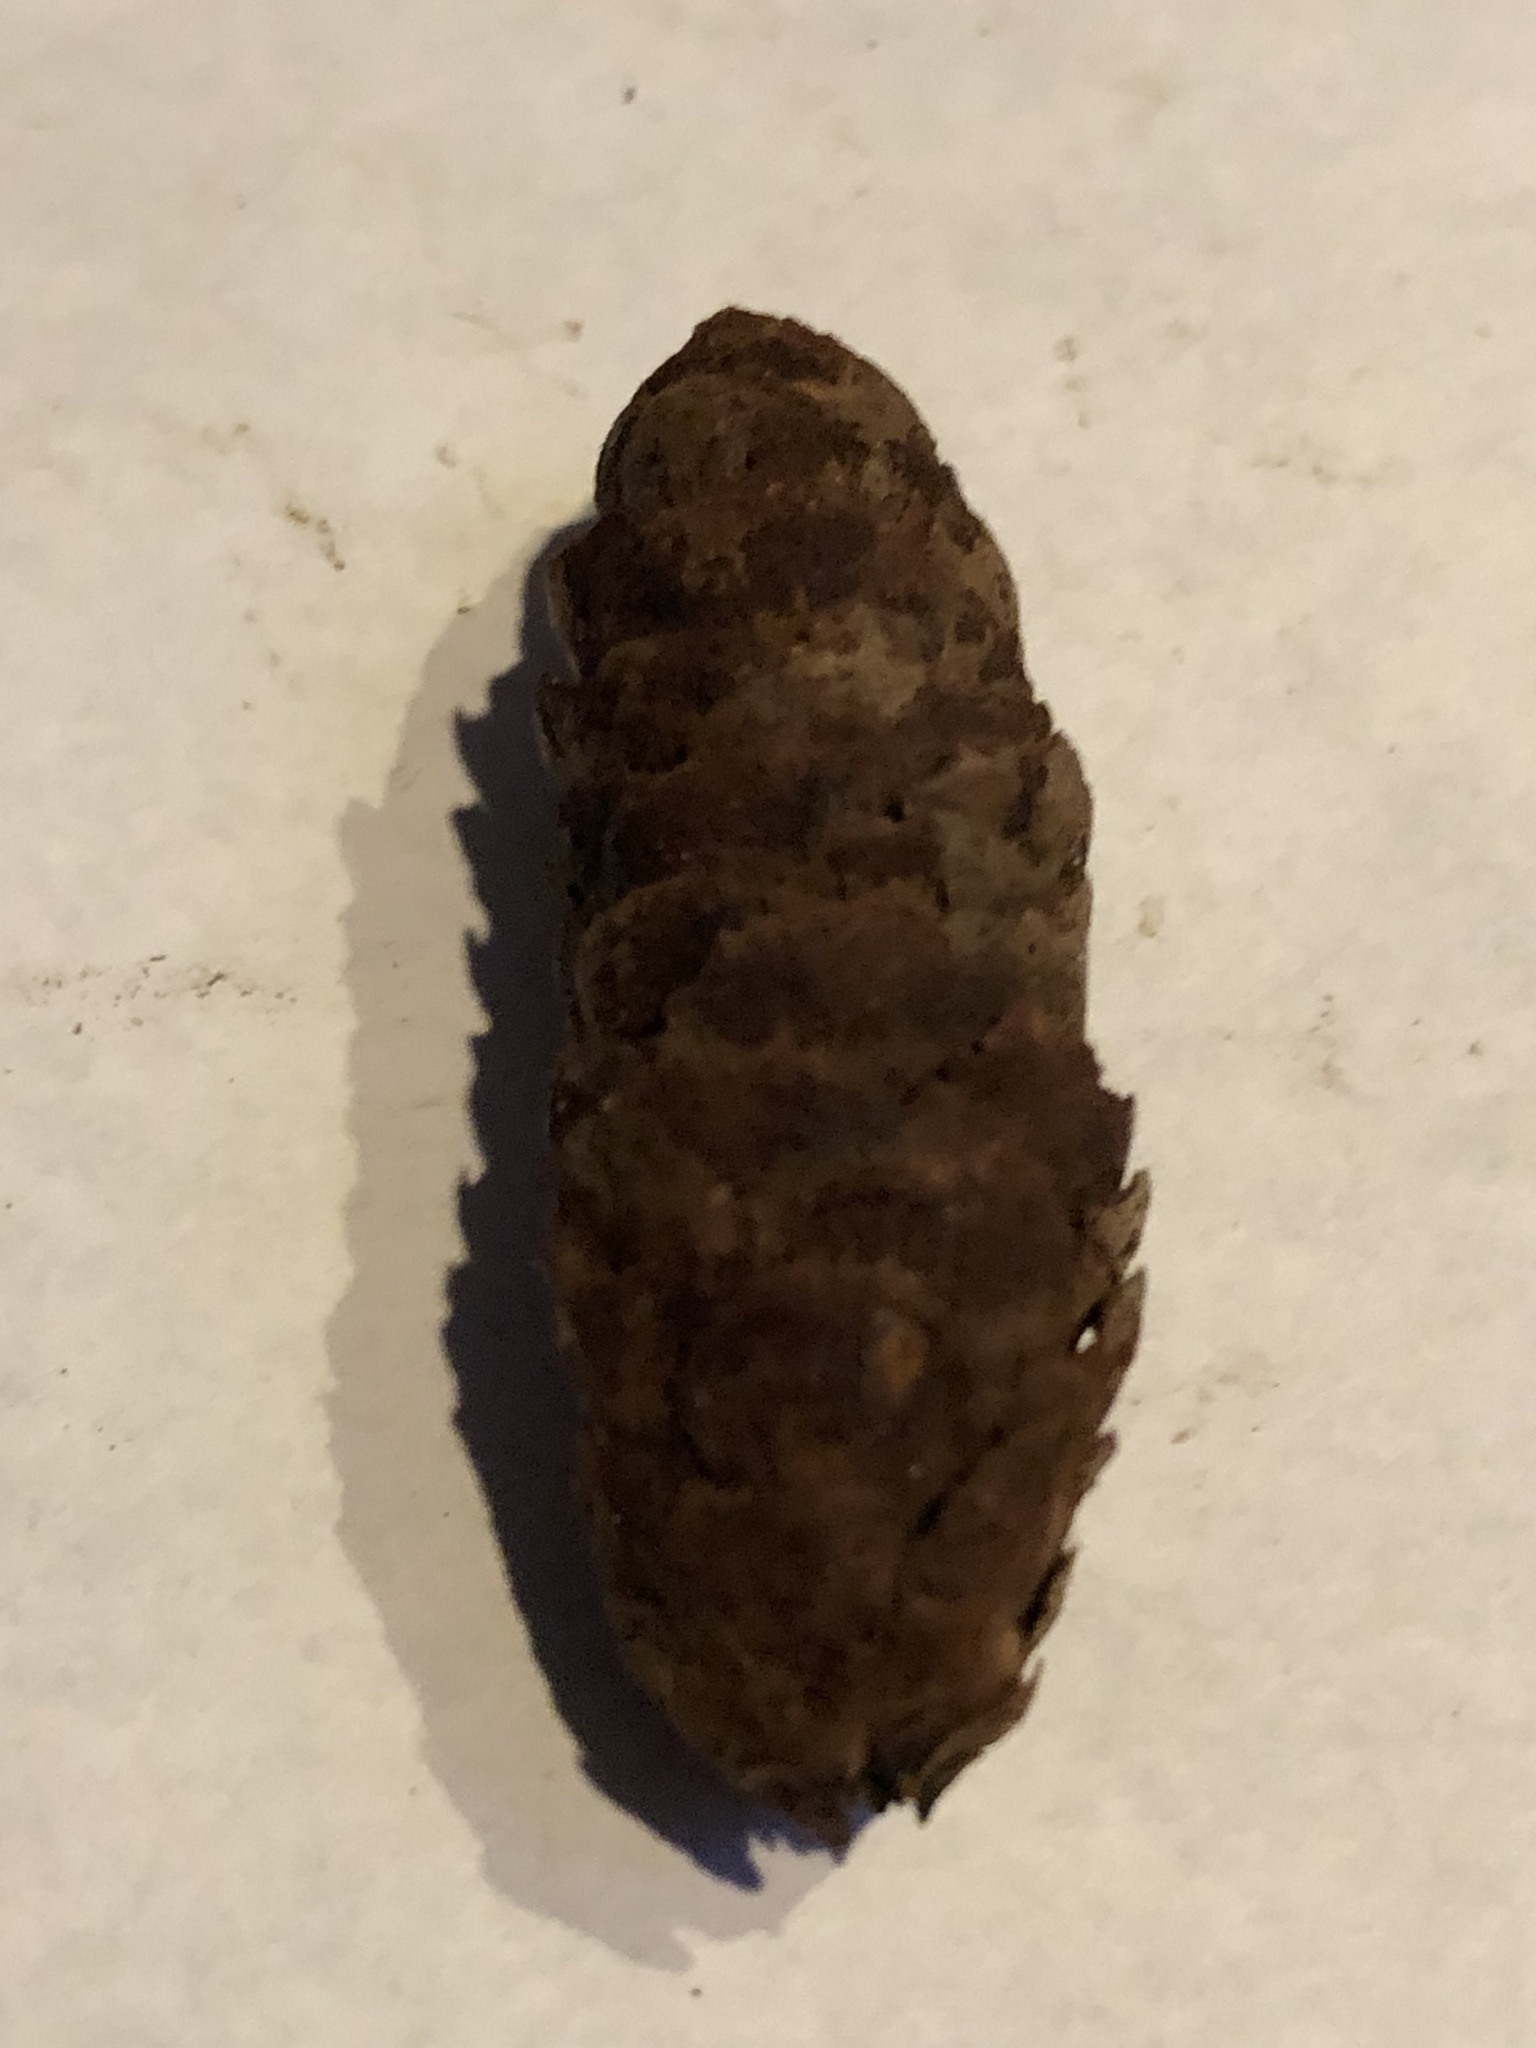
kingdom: Plantae
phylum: Tracheophyta
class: Pinopsida
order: Pinales
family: Pinaceae
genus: Picea
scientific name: Picea glauca
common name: White spruce
